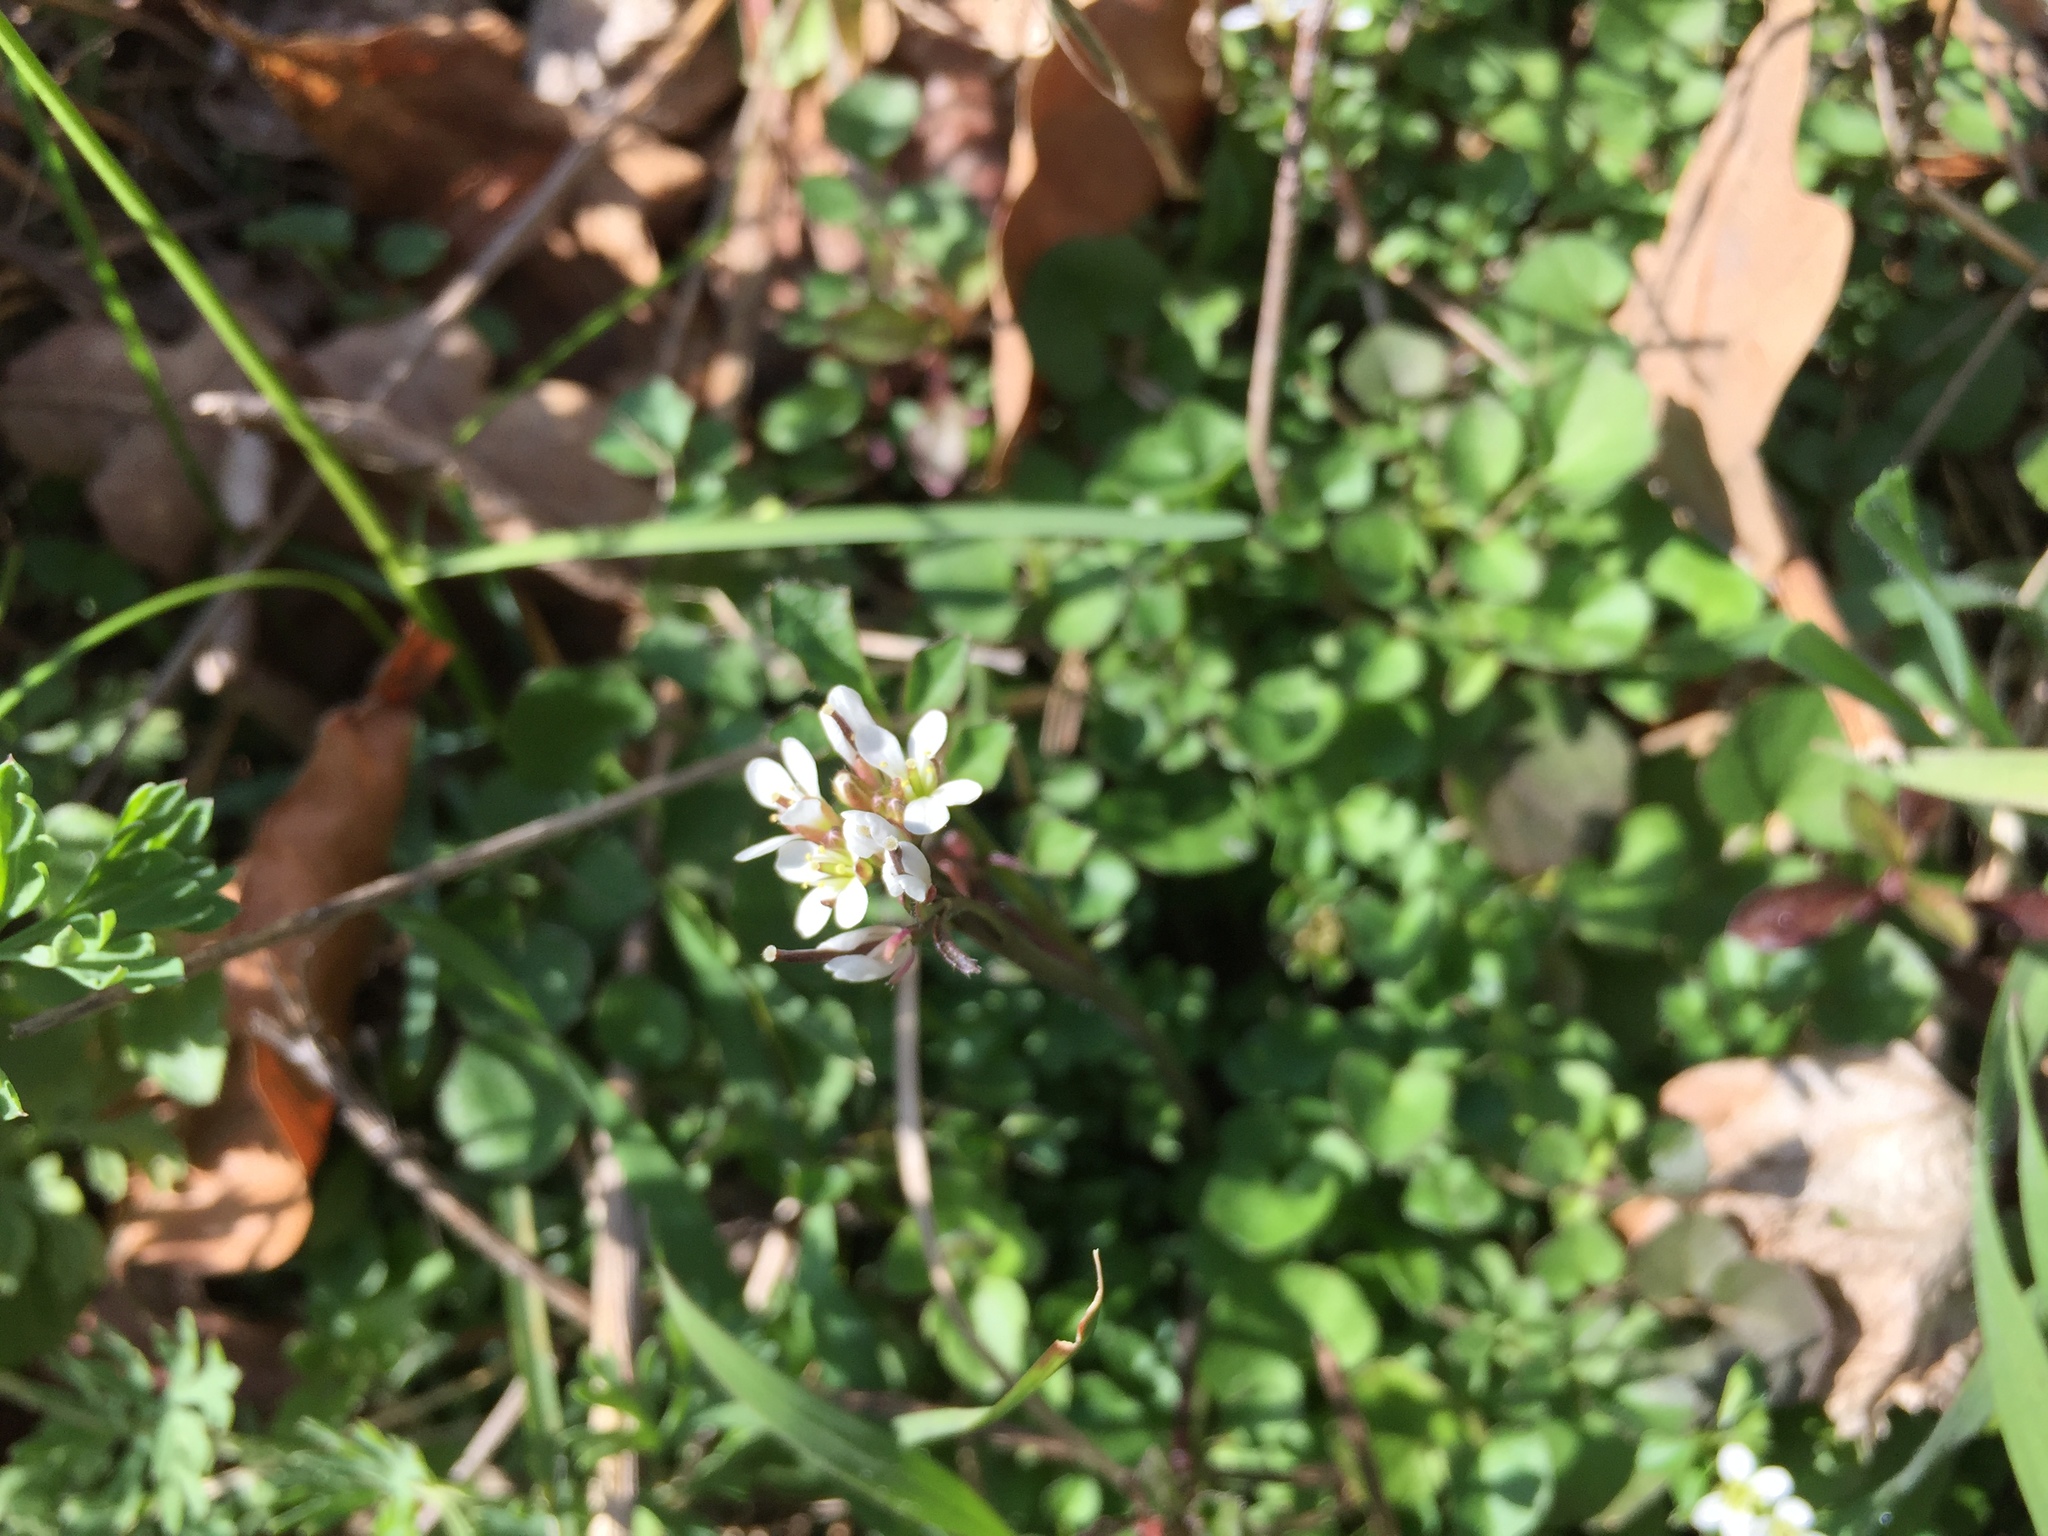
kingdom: Plantae
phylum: Tracheophyta
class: Magnoliopsida
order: Brassicales
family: Brassicaceae
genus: Cardamine
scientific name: Cardamine hirsuta
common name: Hairy bittercress
